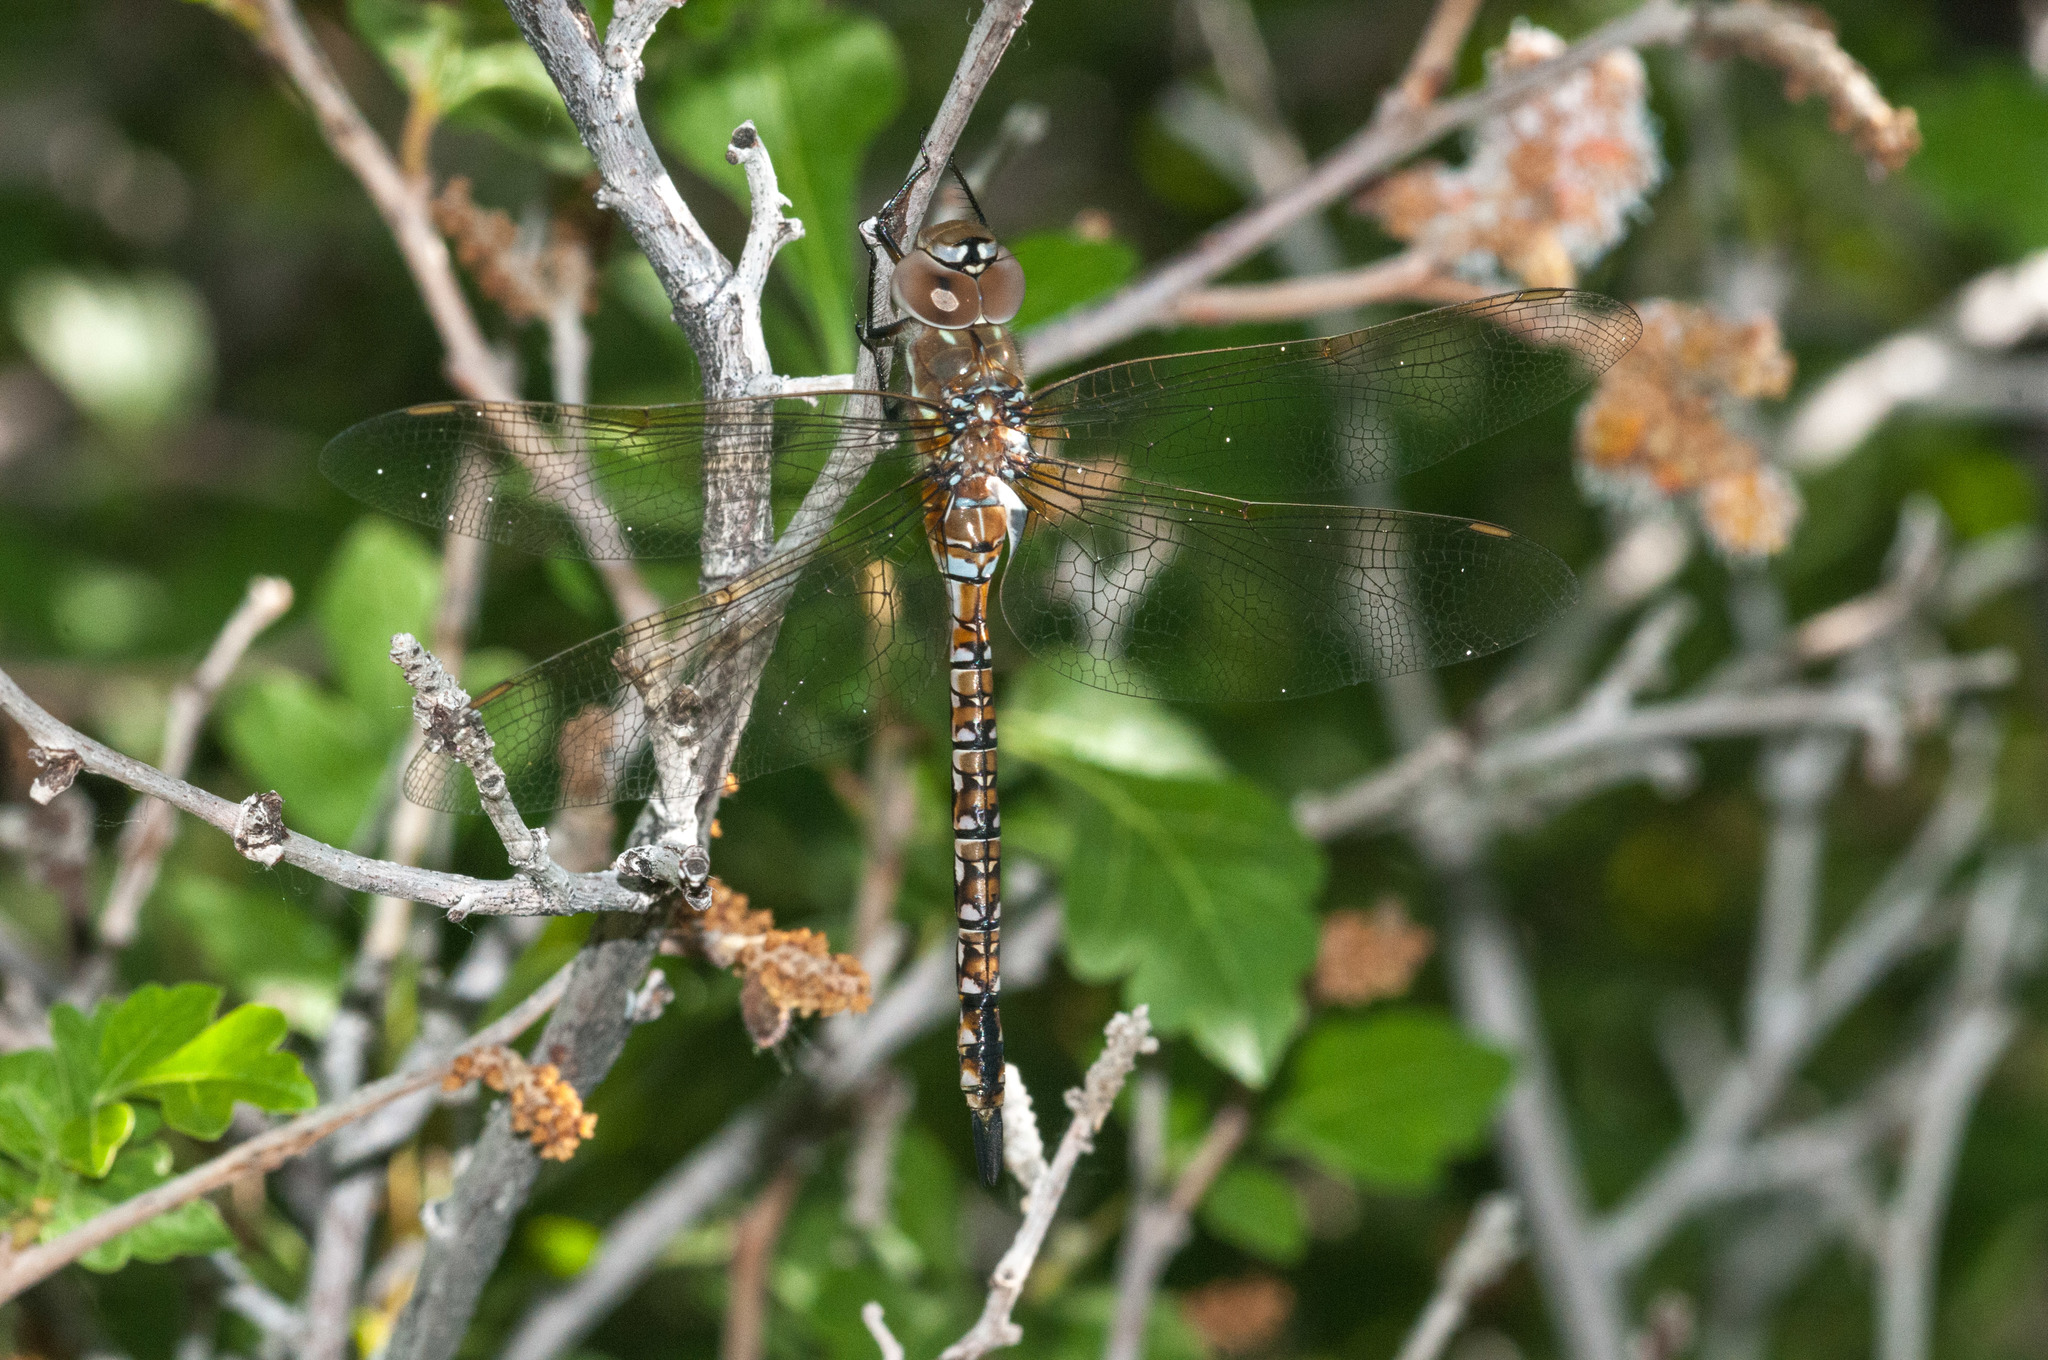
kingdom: Animalia
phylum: Arthropoda
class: Insecta
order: Odonata
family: Aeshnidae
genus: Rhionaeschna
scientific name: Rhionaeschna multicolor
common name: Blue-eyed darner
